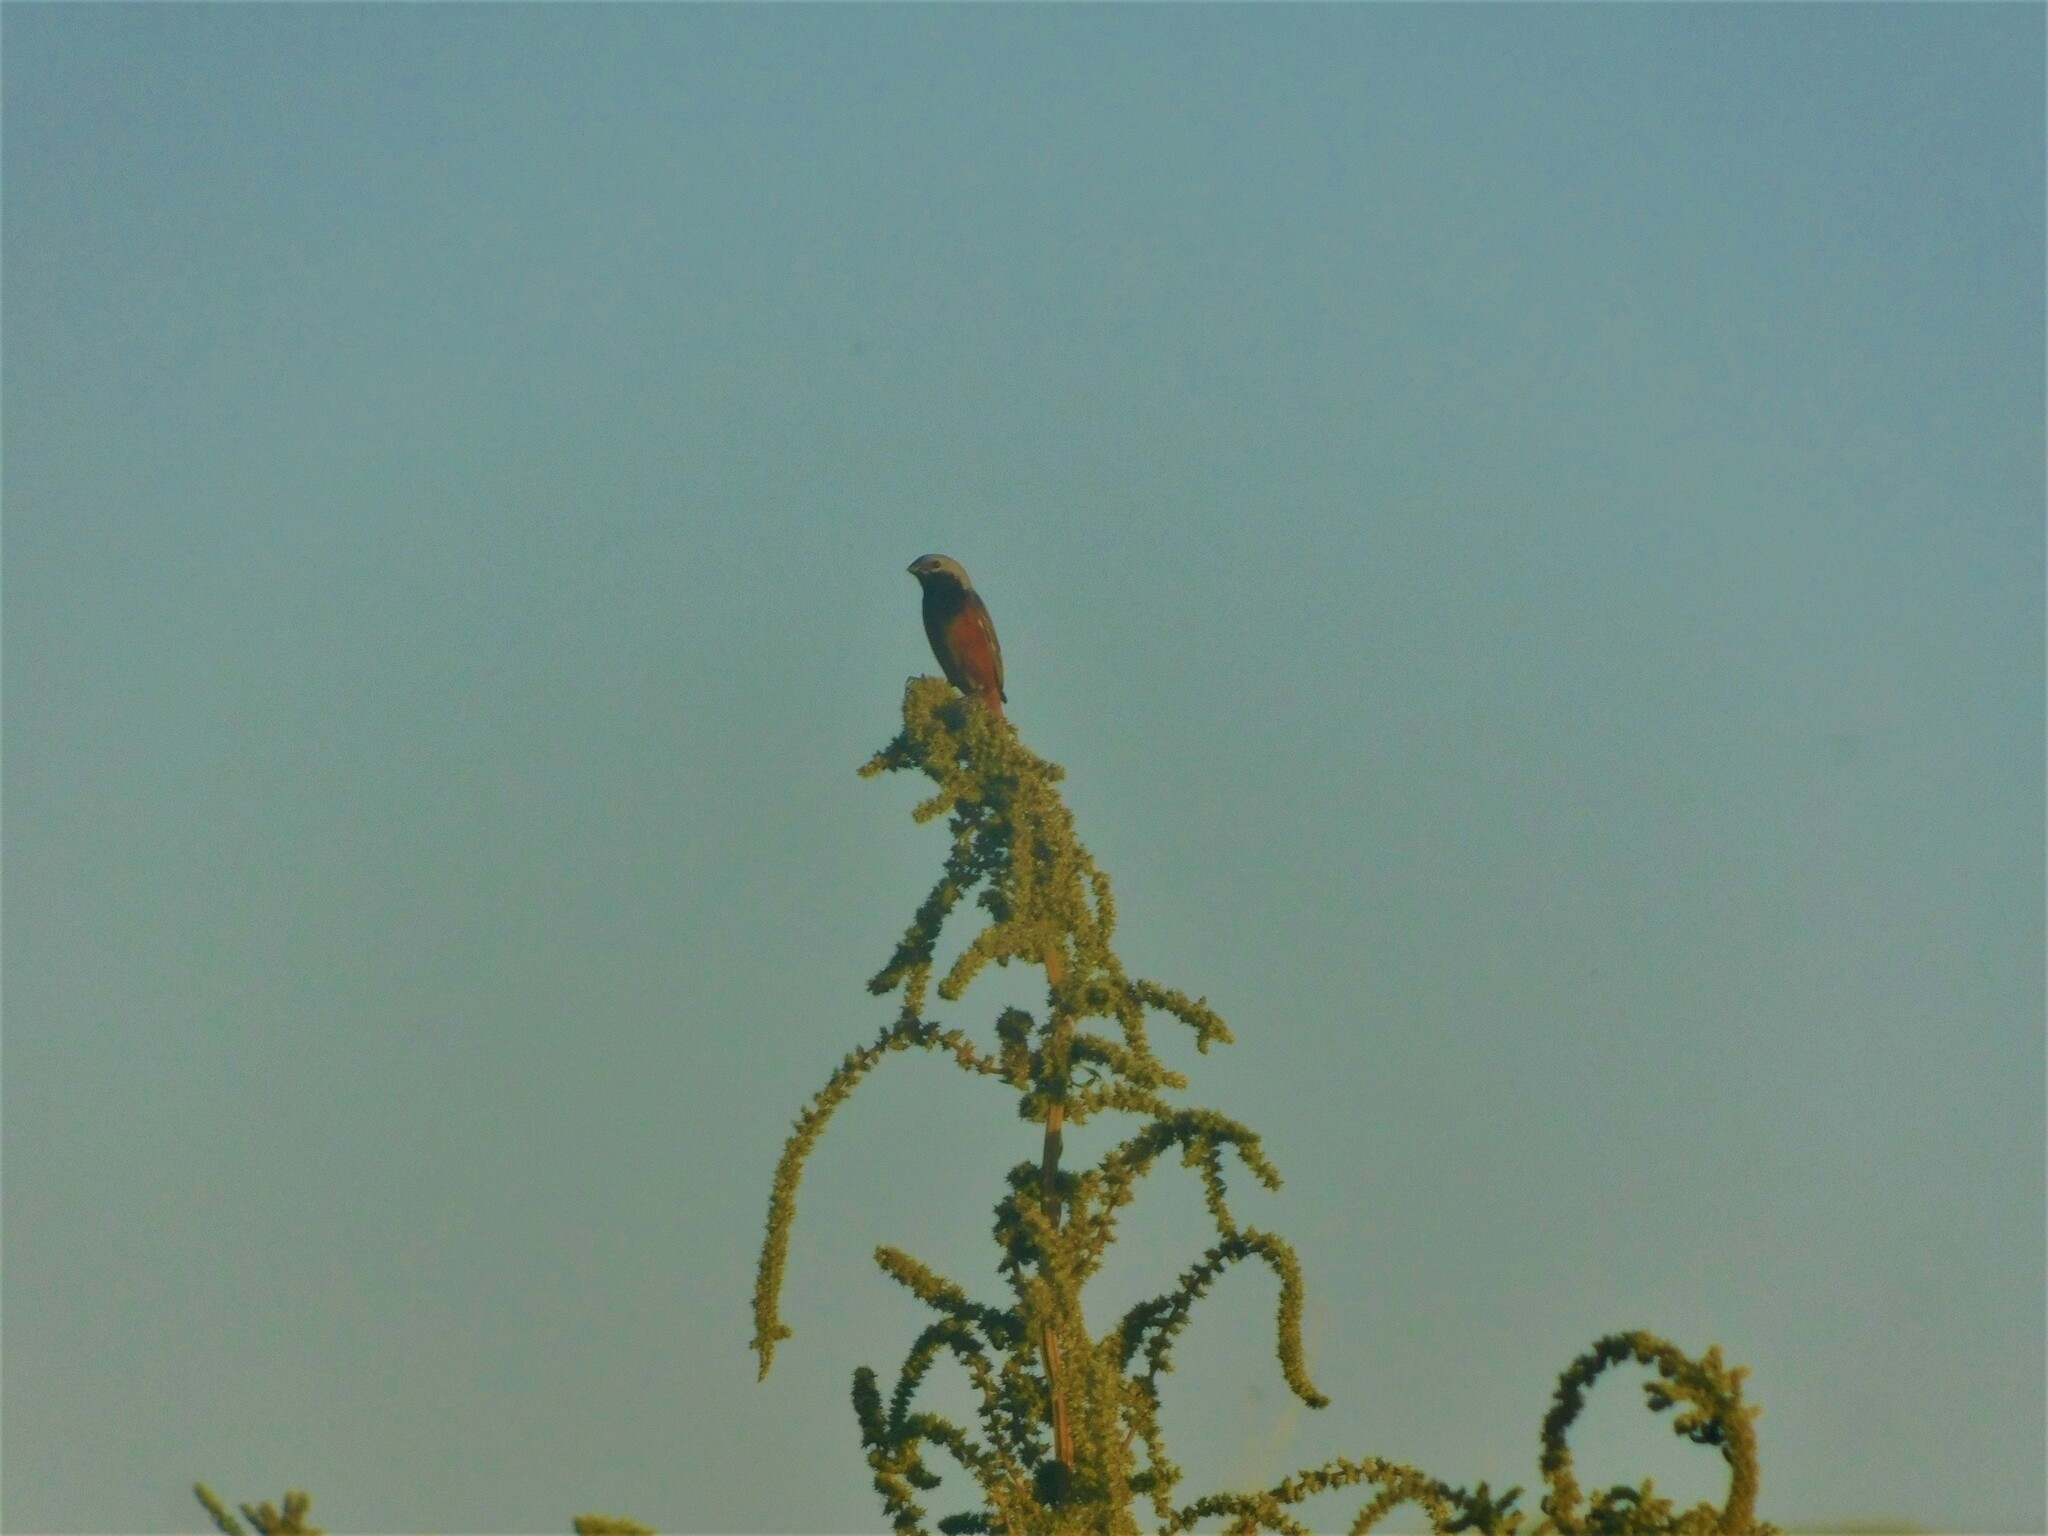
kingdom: Animalia
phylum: Chordata
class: Aves
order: Passeriformes
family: Thraupidae
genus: Sporophila
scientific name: Sporophila ruficollis
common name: Dark-throated seedeater
